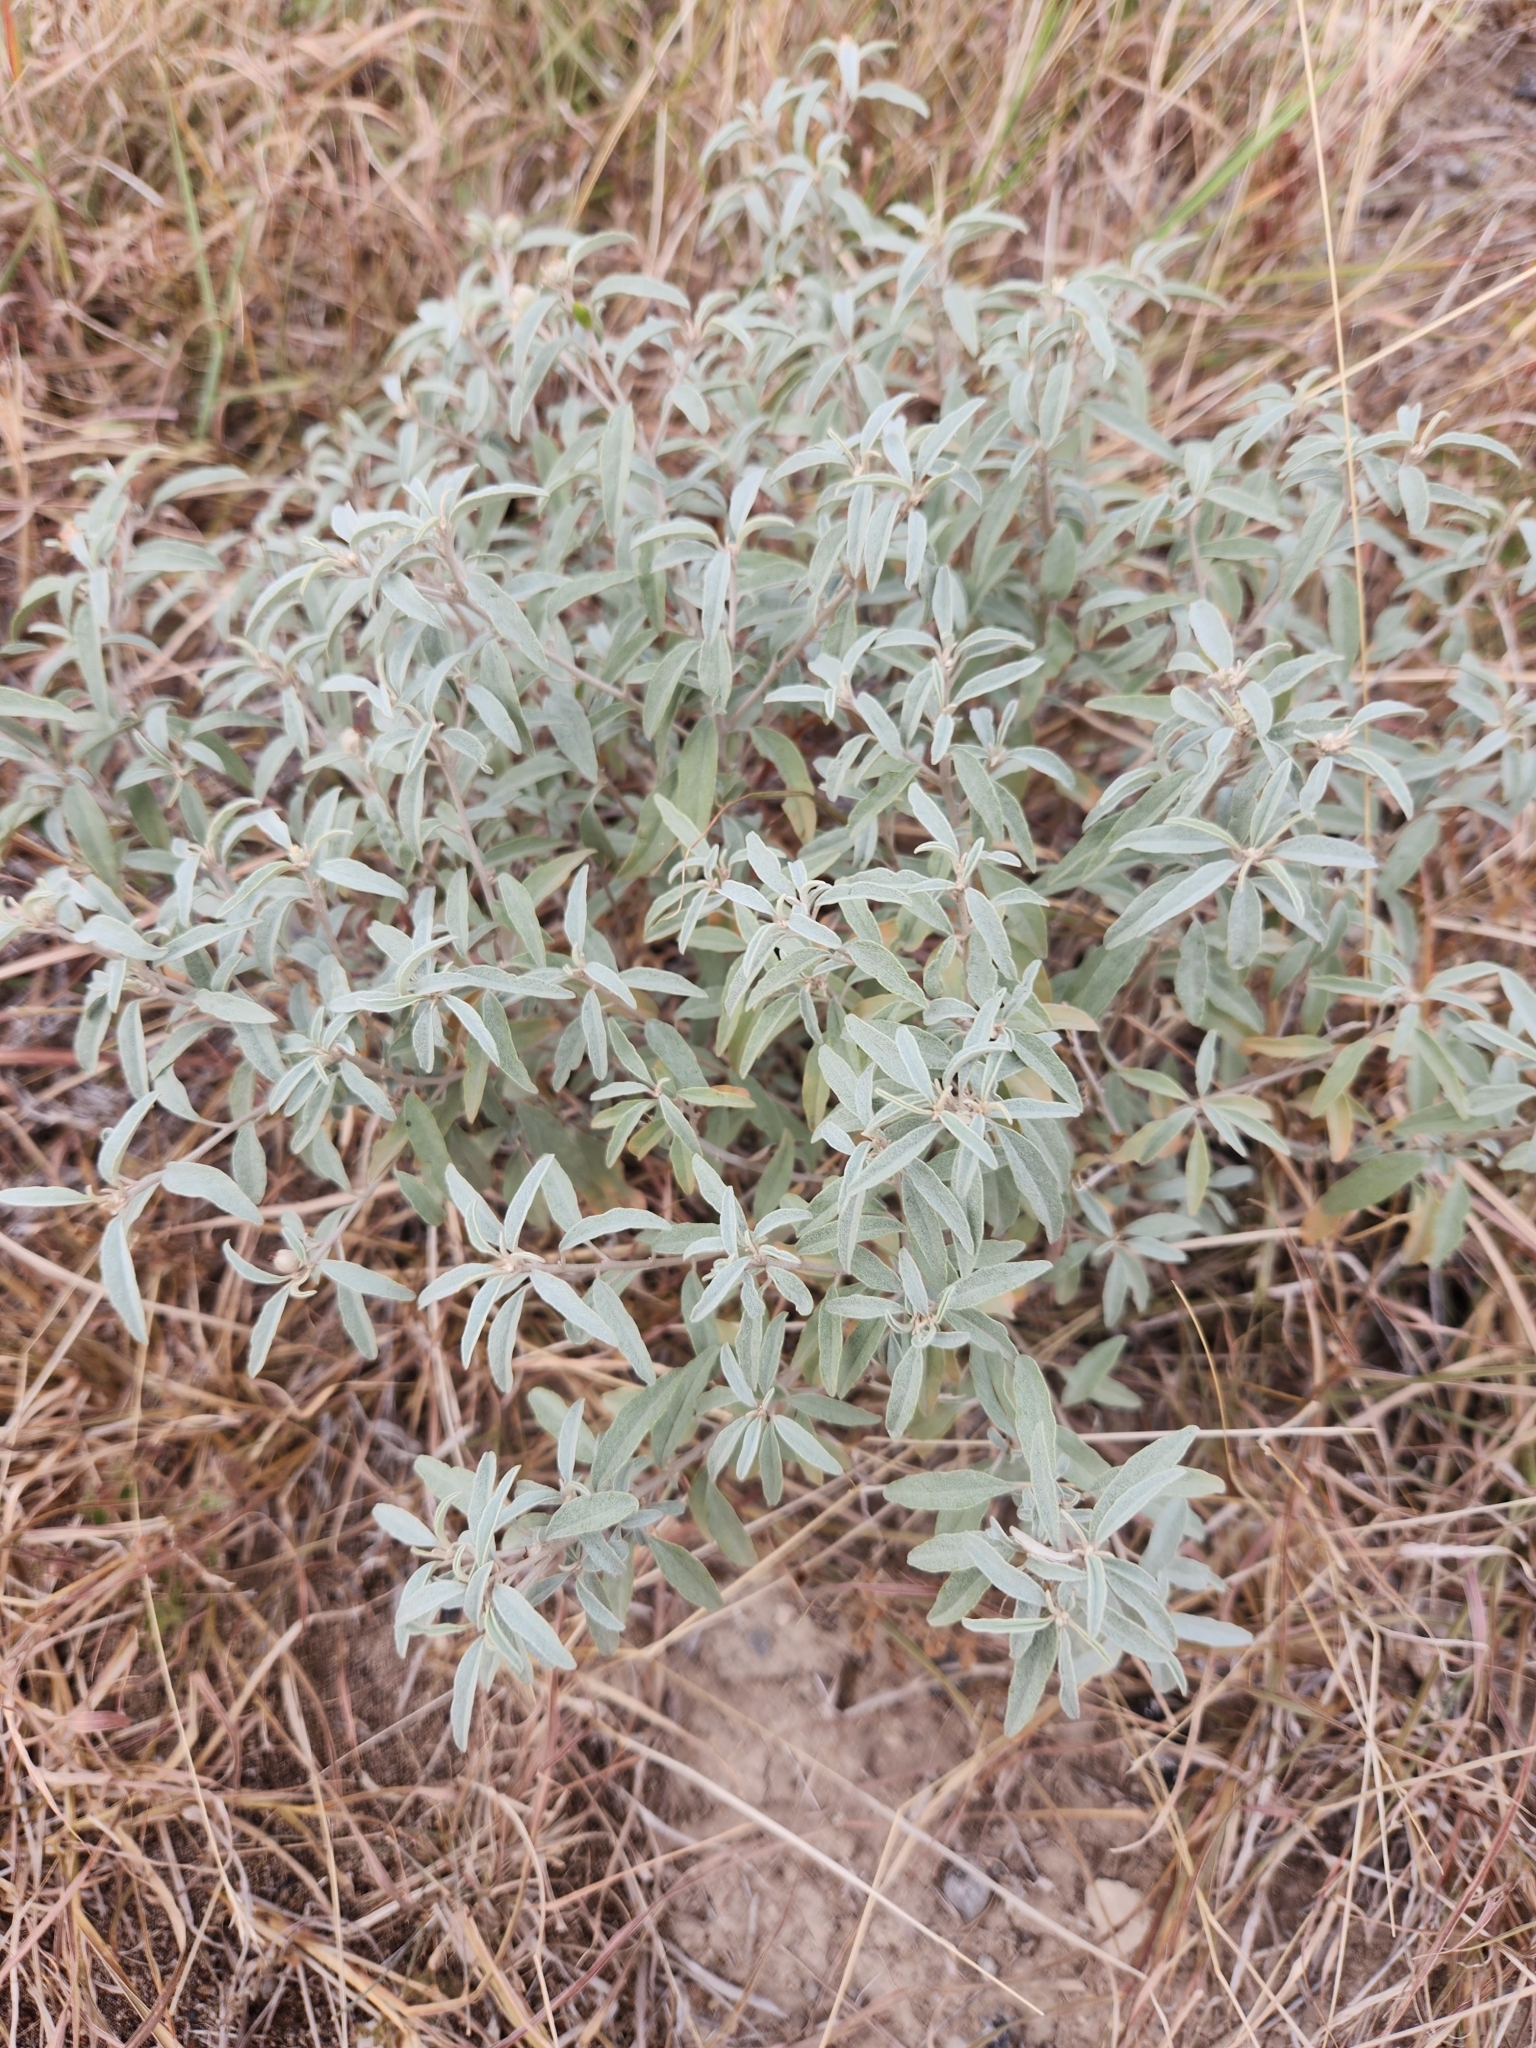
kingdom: Plantae
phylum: Tracheophyta
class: Magnoliopsida
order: Malpighiales
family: Euphorbiaceae
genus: Croton
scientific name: Croton dioicus
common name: Grassland croton
